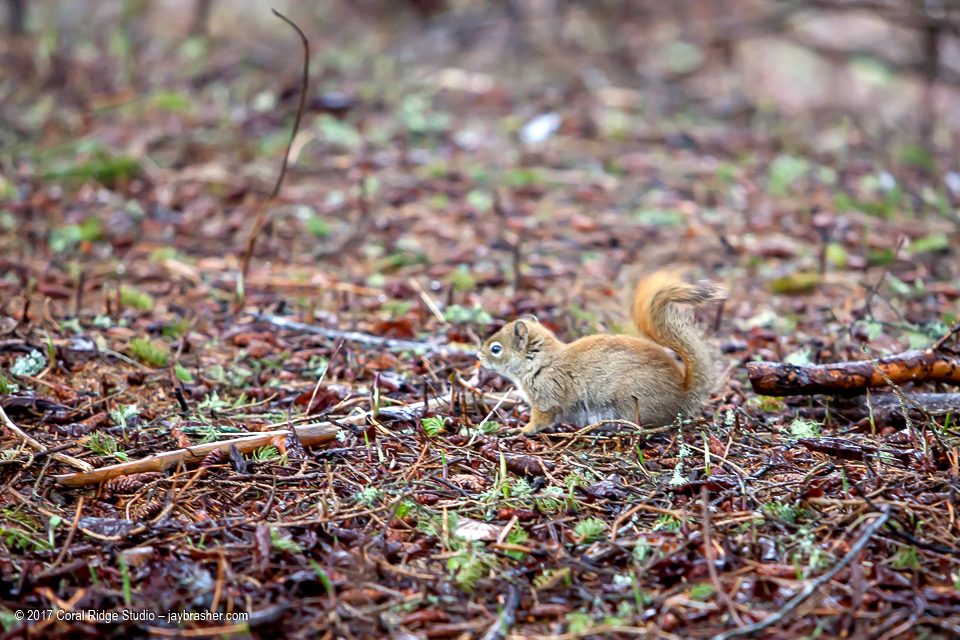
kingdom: Animalia
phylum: Chordata
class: Mammalia
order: Rodentia
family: Sciuridae
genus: Tamiasciurus
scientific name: Tamiasciurus hudsonicus
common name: Red squirrel
